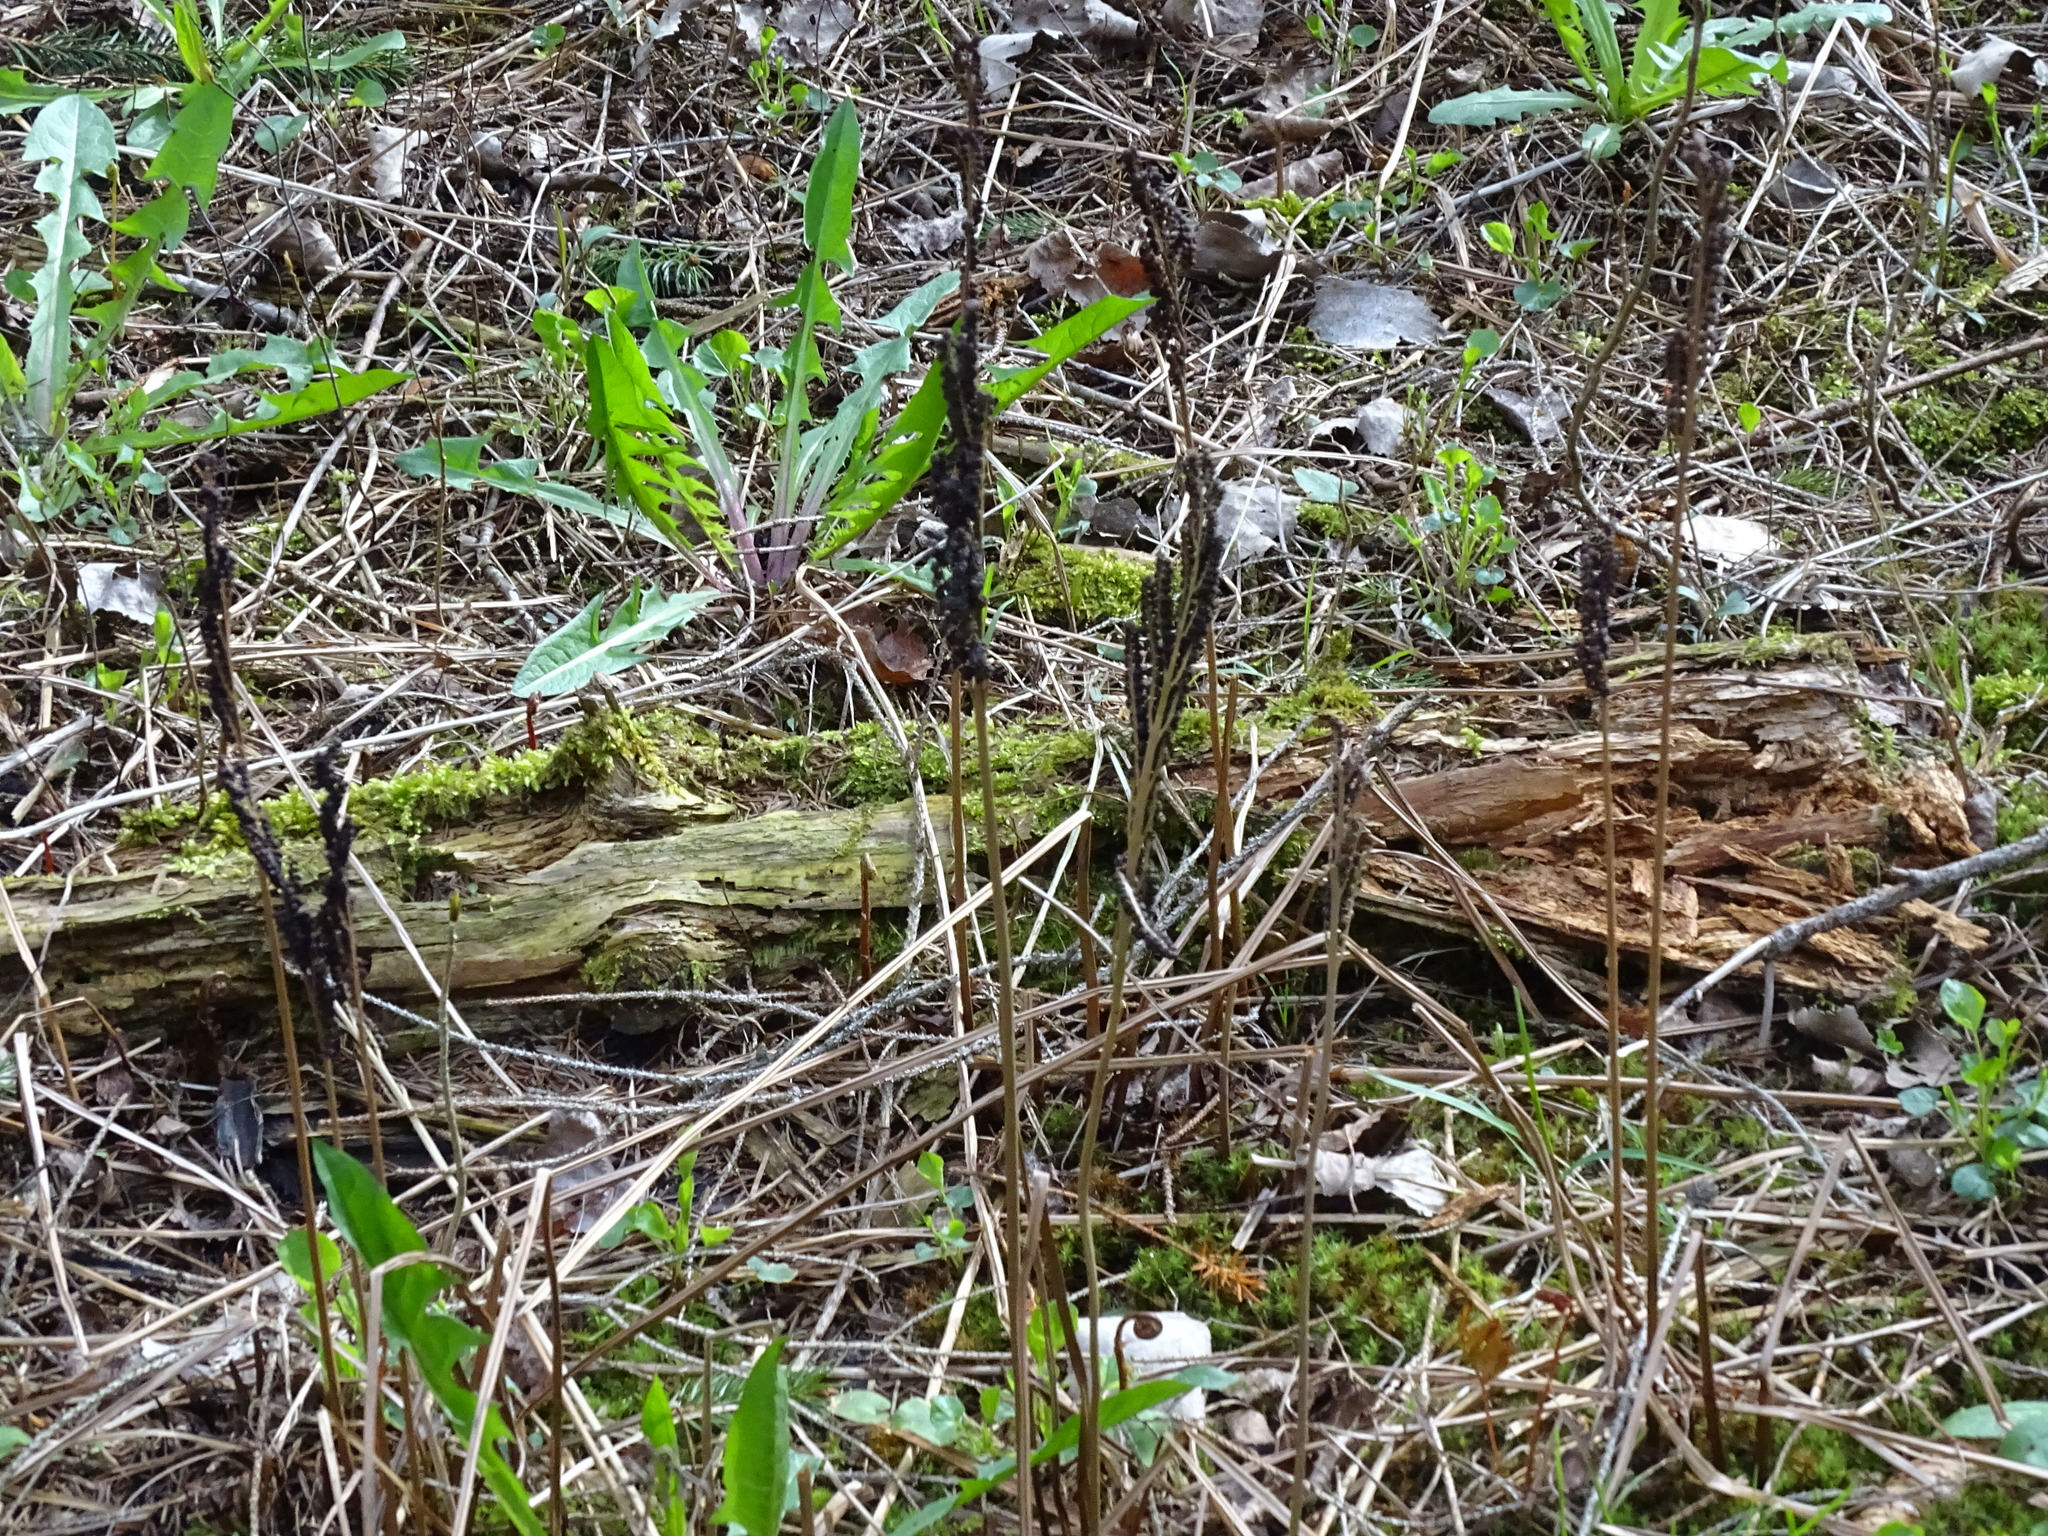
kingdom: Plantae
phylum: Tracheophyta
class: Polypodiopsida
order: Polypodiales
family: Onocleaceae
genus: Onoclea
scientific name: Onoclea sensibilis
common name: Sensitive fern
